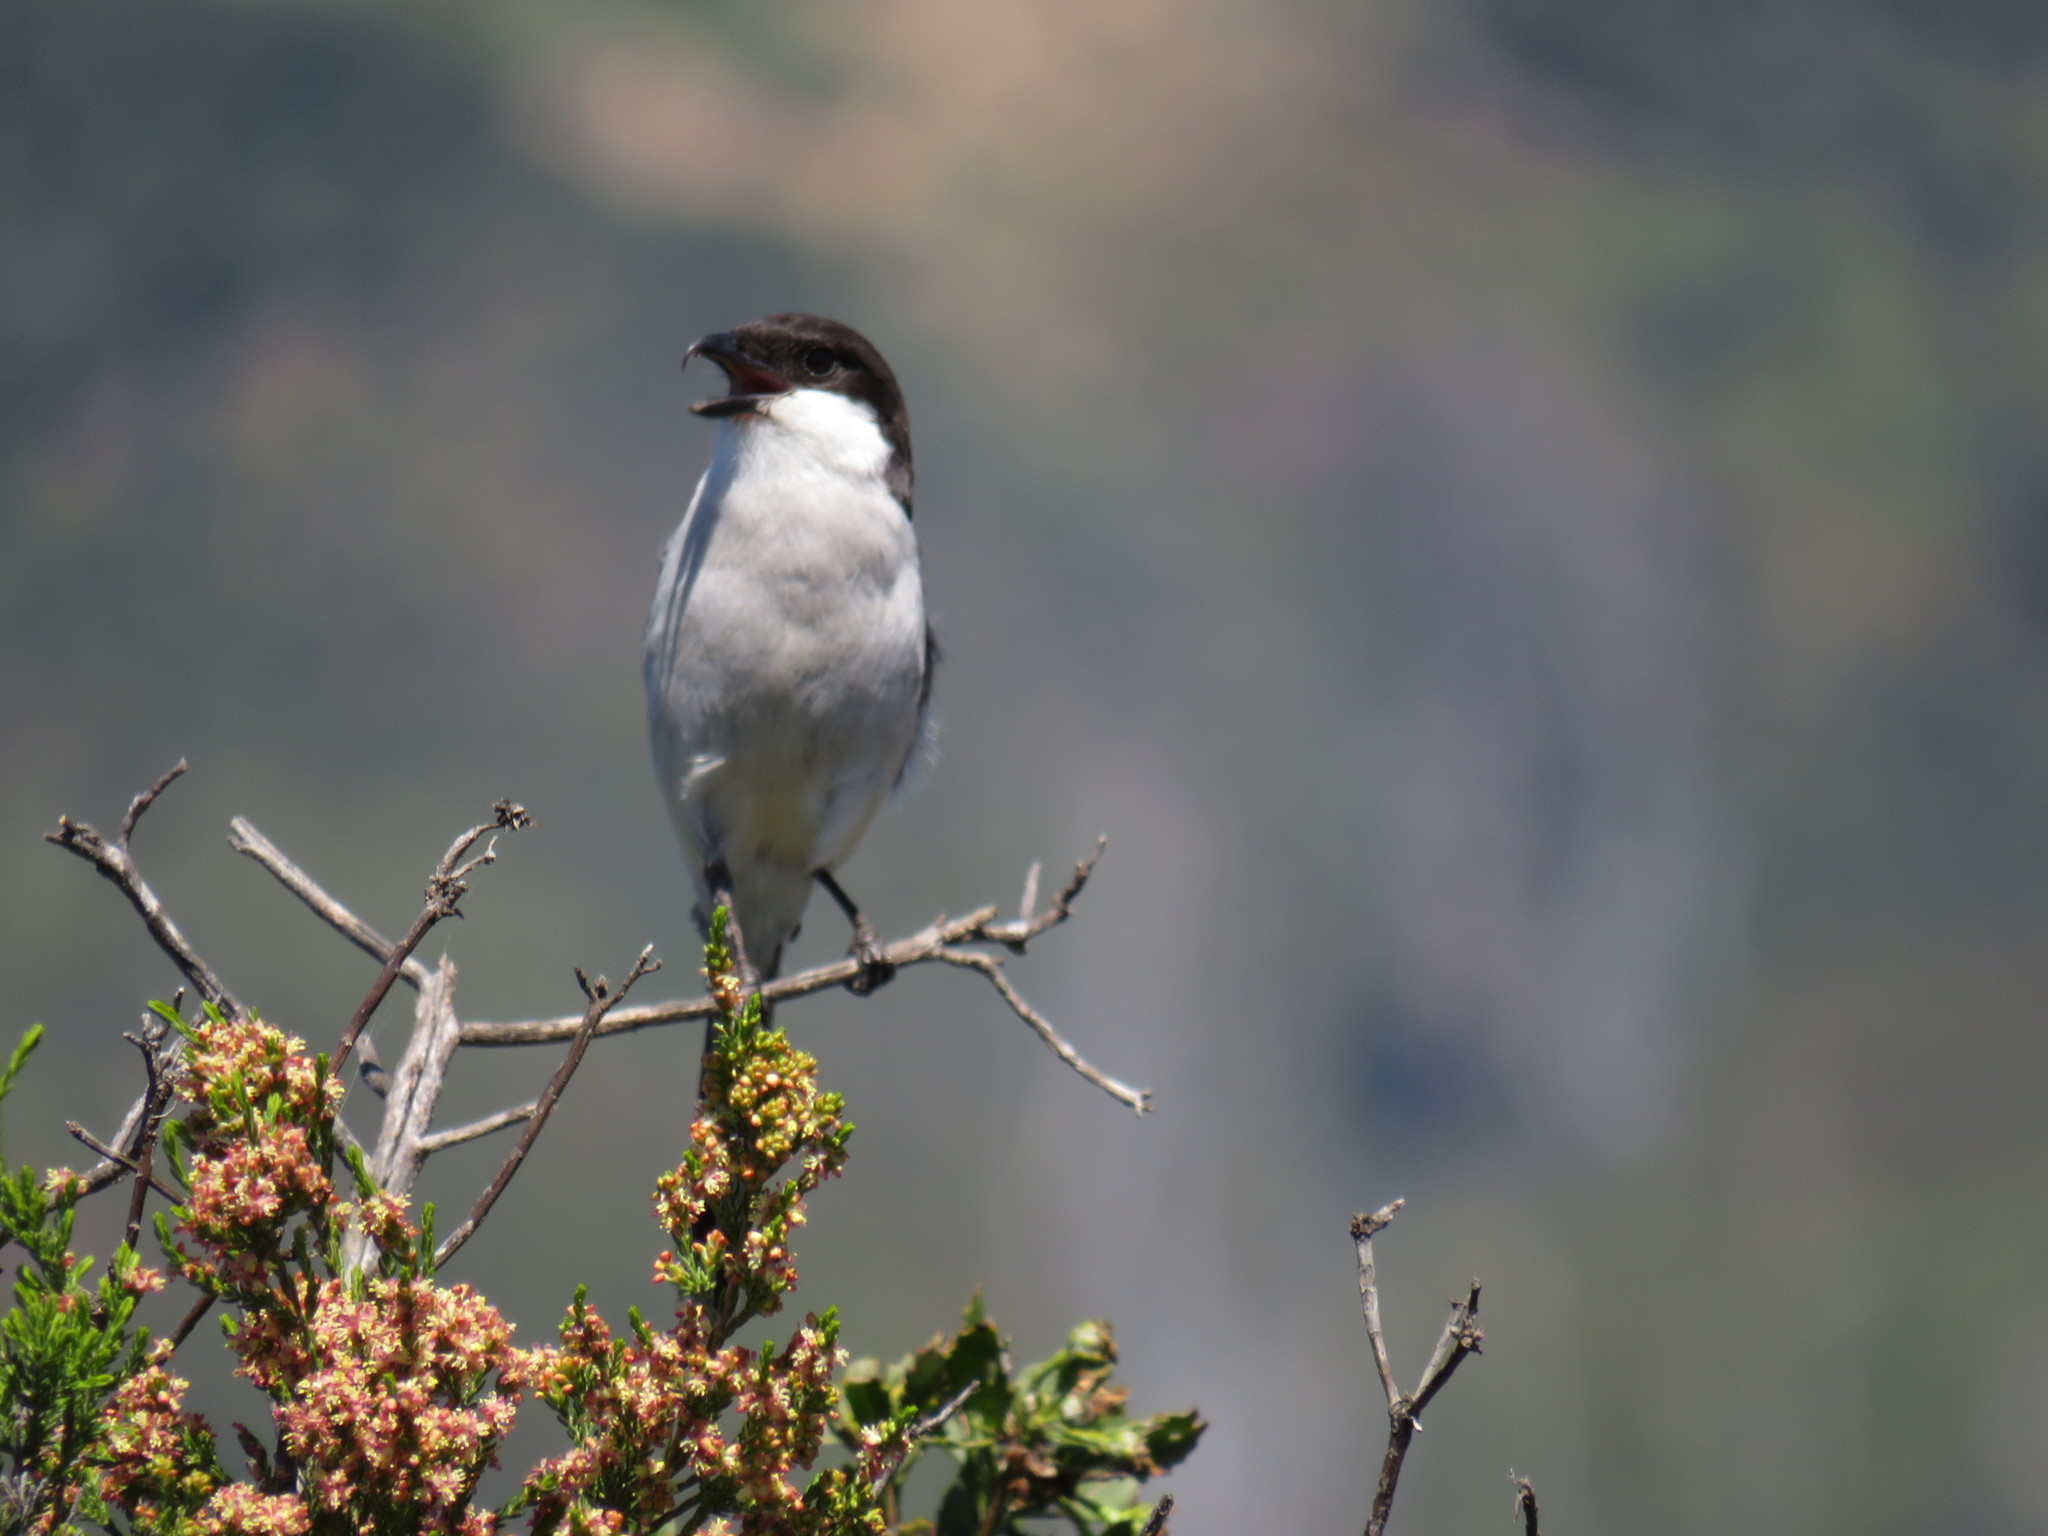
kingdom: Animalia
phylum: Chordata
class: Aves
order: Passeriformes
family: Laniidae
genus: Lanius
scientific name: Lanius collaris
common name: Southern fiscal
